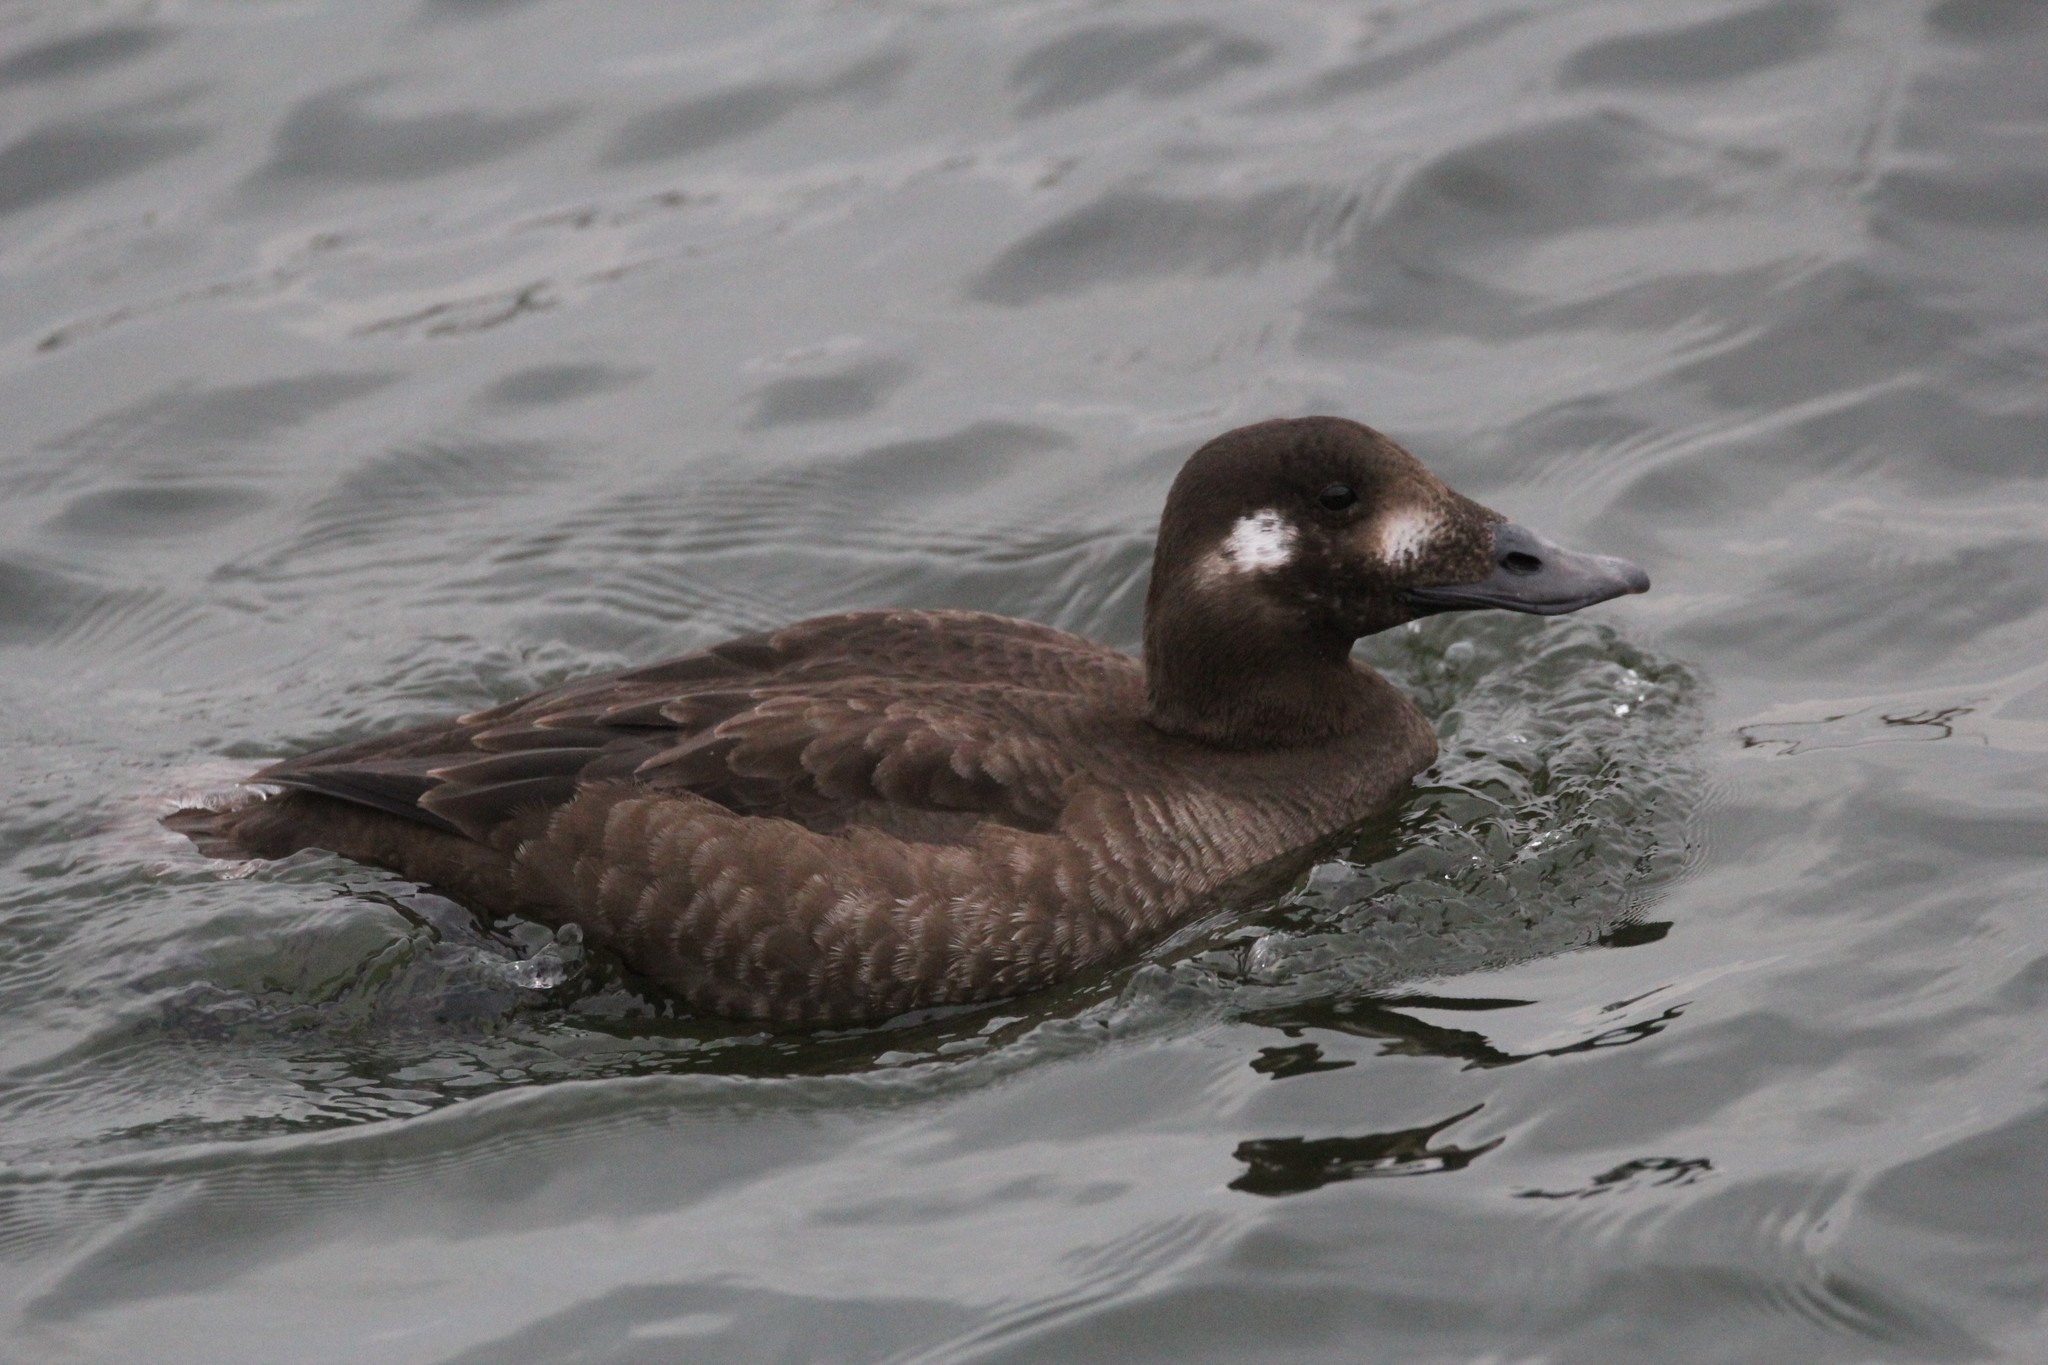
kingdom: Animalia
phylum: Chordata
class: Aves
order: Anseriformes
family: Anatidae
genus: Melanitta
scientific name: Melanitta deglandi
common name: White-winged scoter
